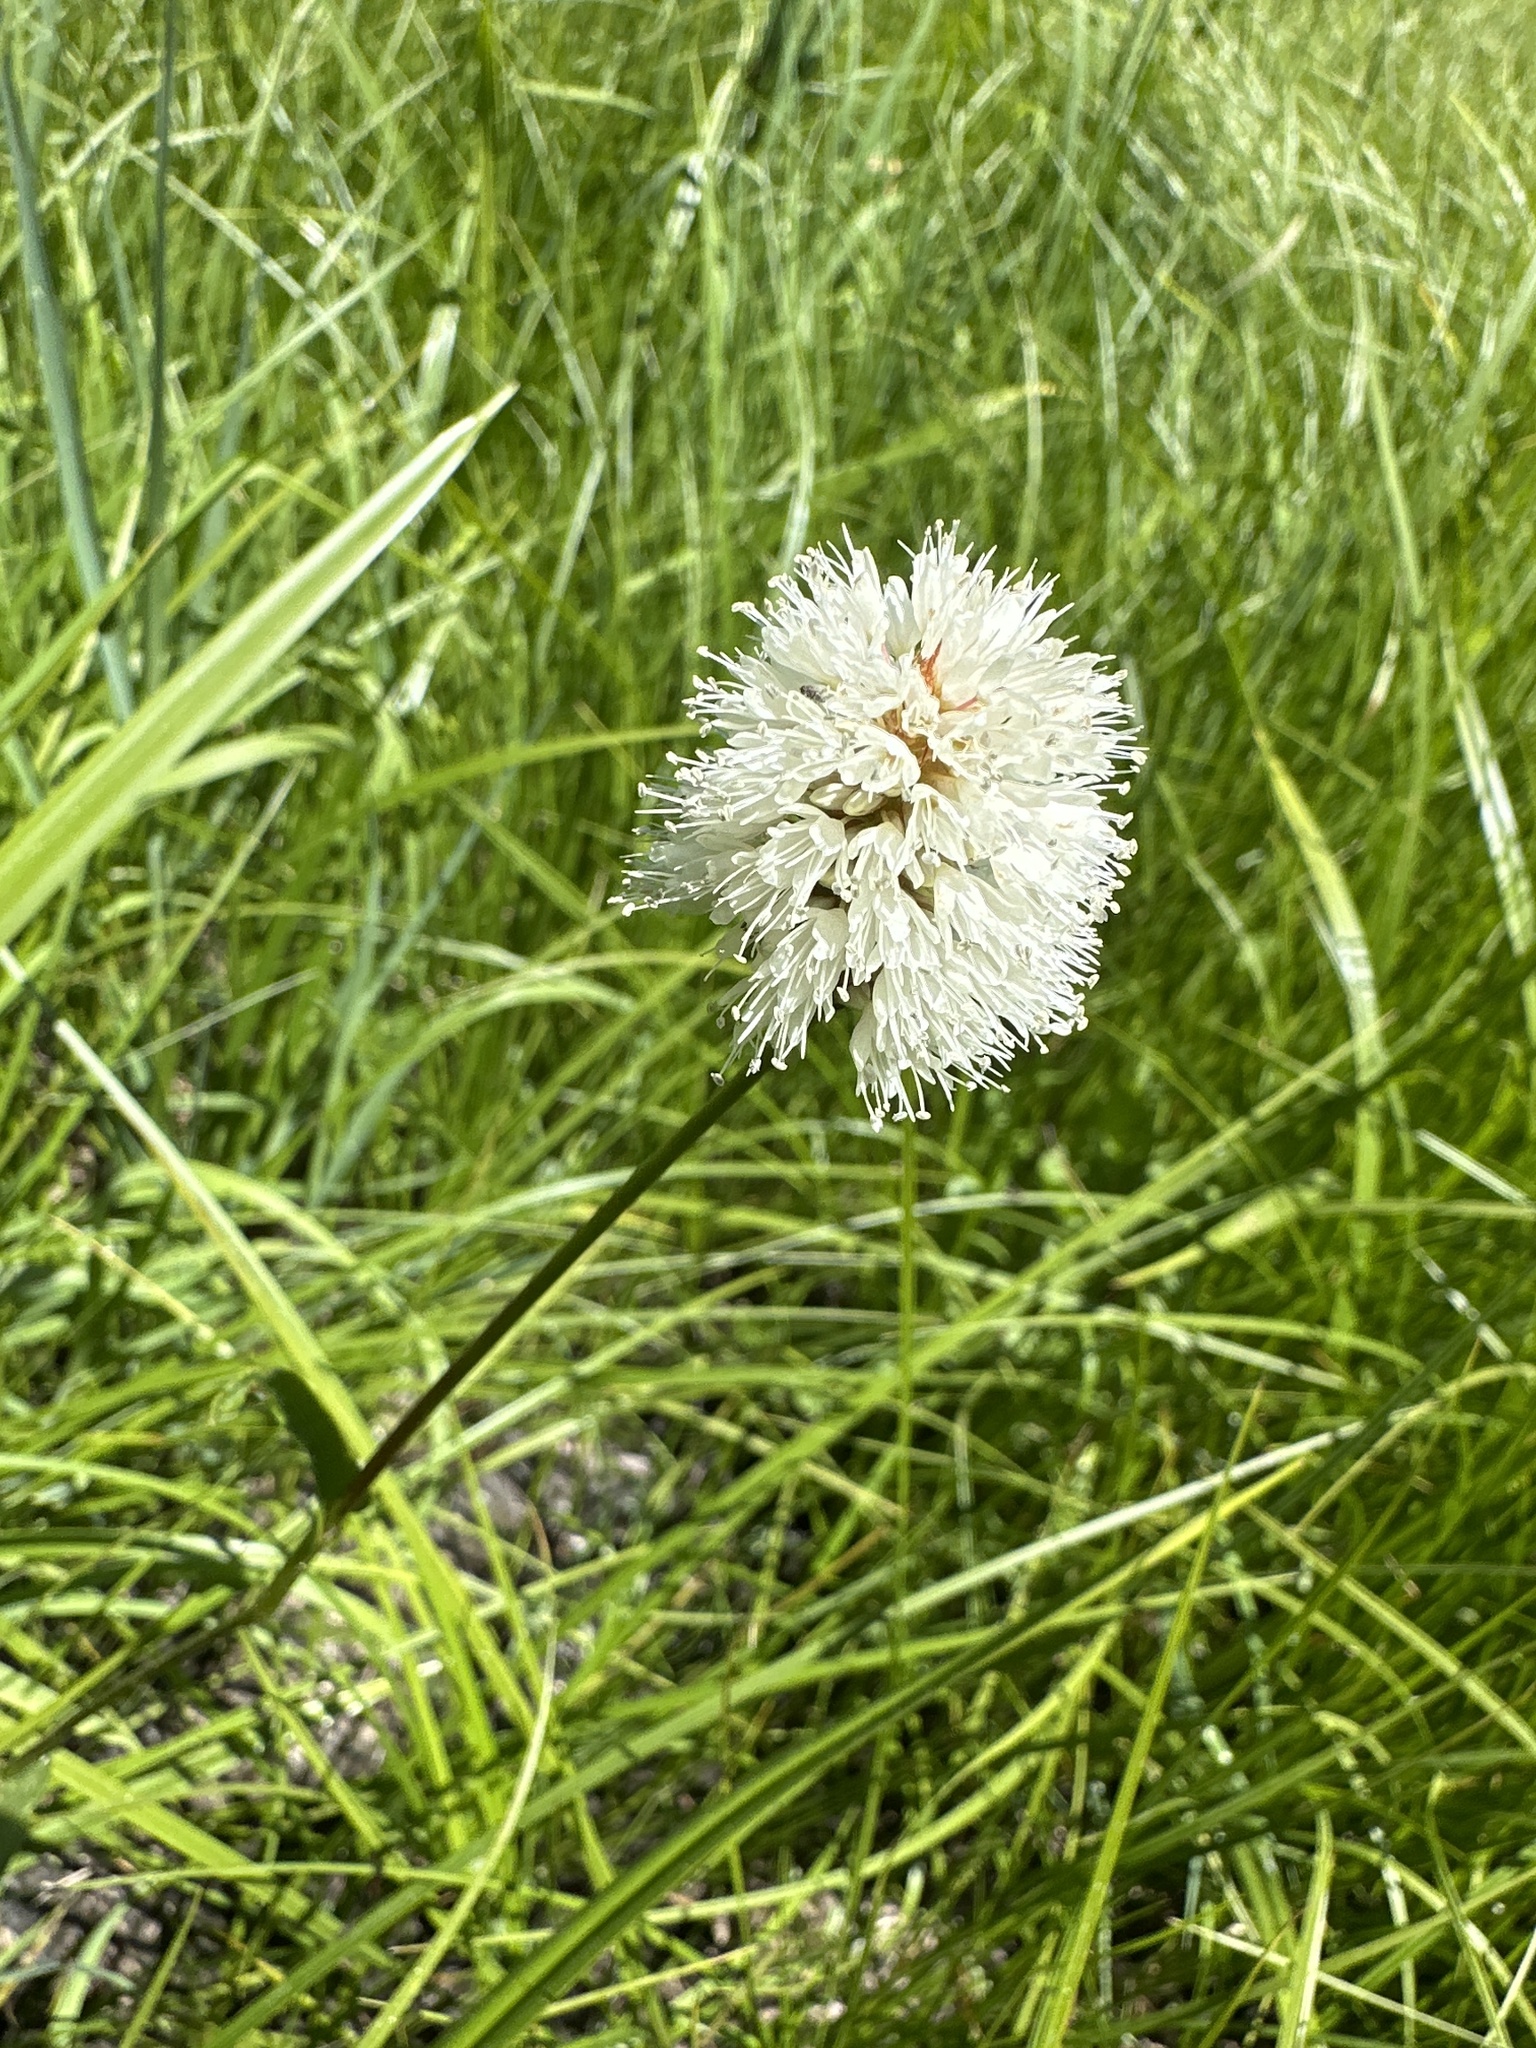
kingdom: Plantae
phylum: Tracheophyta
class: Magnoliopsida
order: Caryophyllales
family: Polygonaceae
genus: Bistorta
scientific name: Bistorta bistortoides
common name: American bistort
